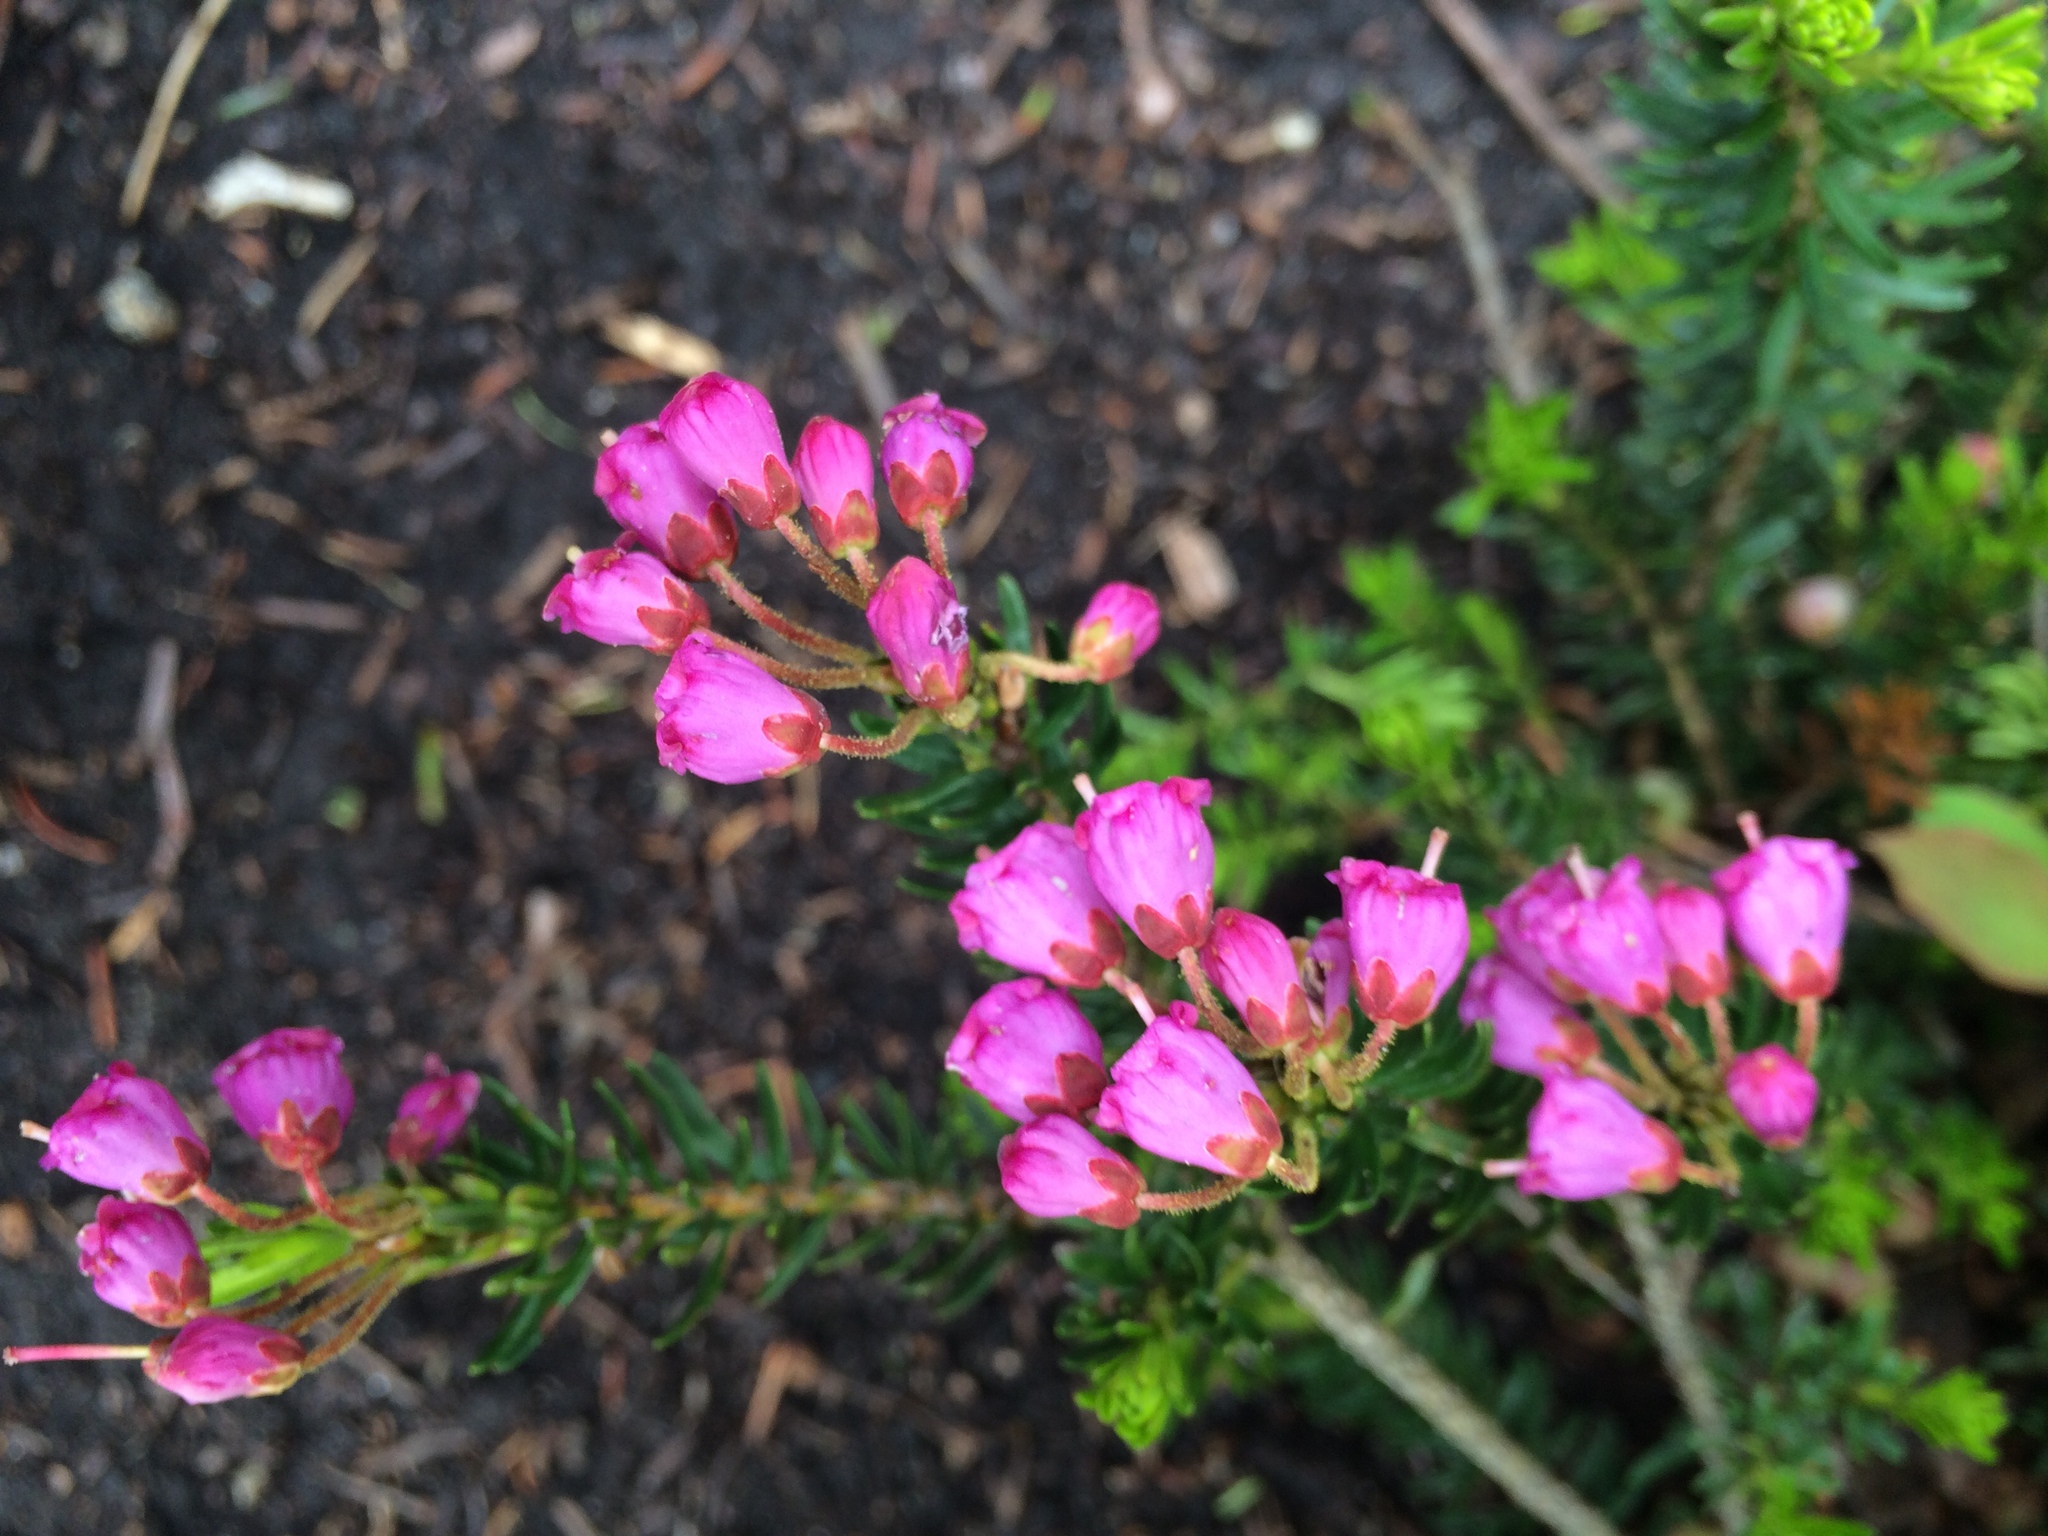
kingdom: Plantae
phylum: Tracheophyta
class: Magnoliopsida
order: Ericales
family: Ericaceae
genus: Phyllodoce
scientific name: Phyllodoce empetriformis
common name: Pink mountain heather
